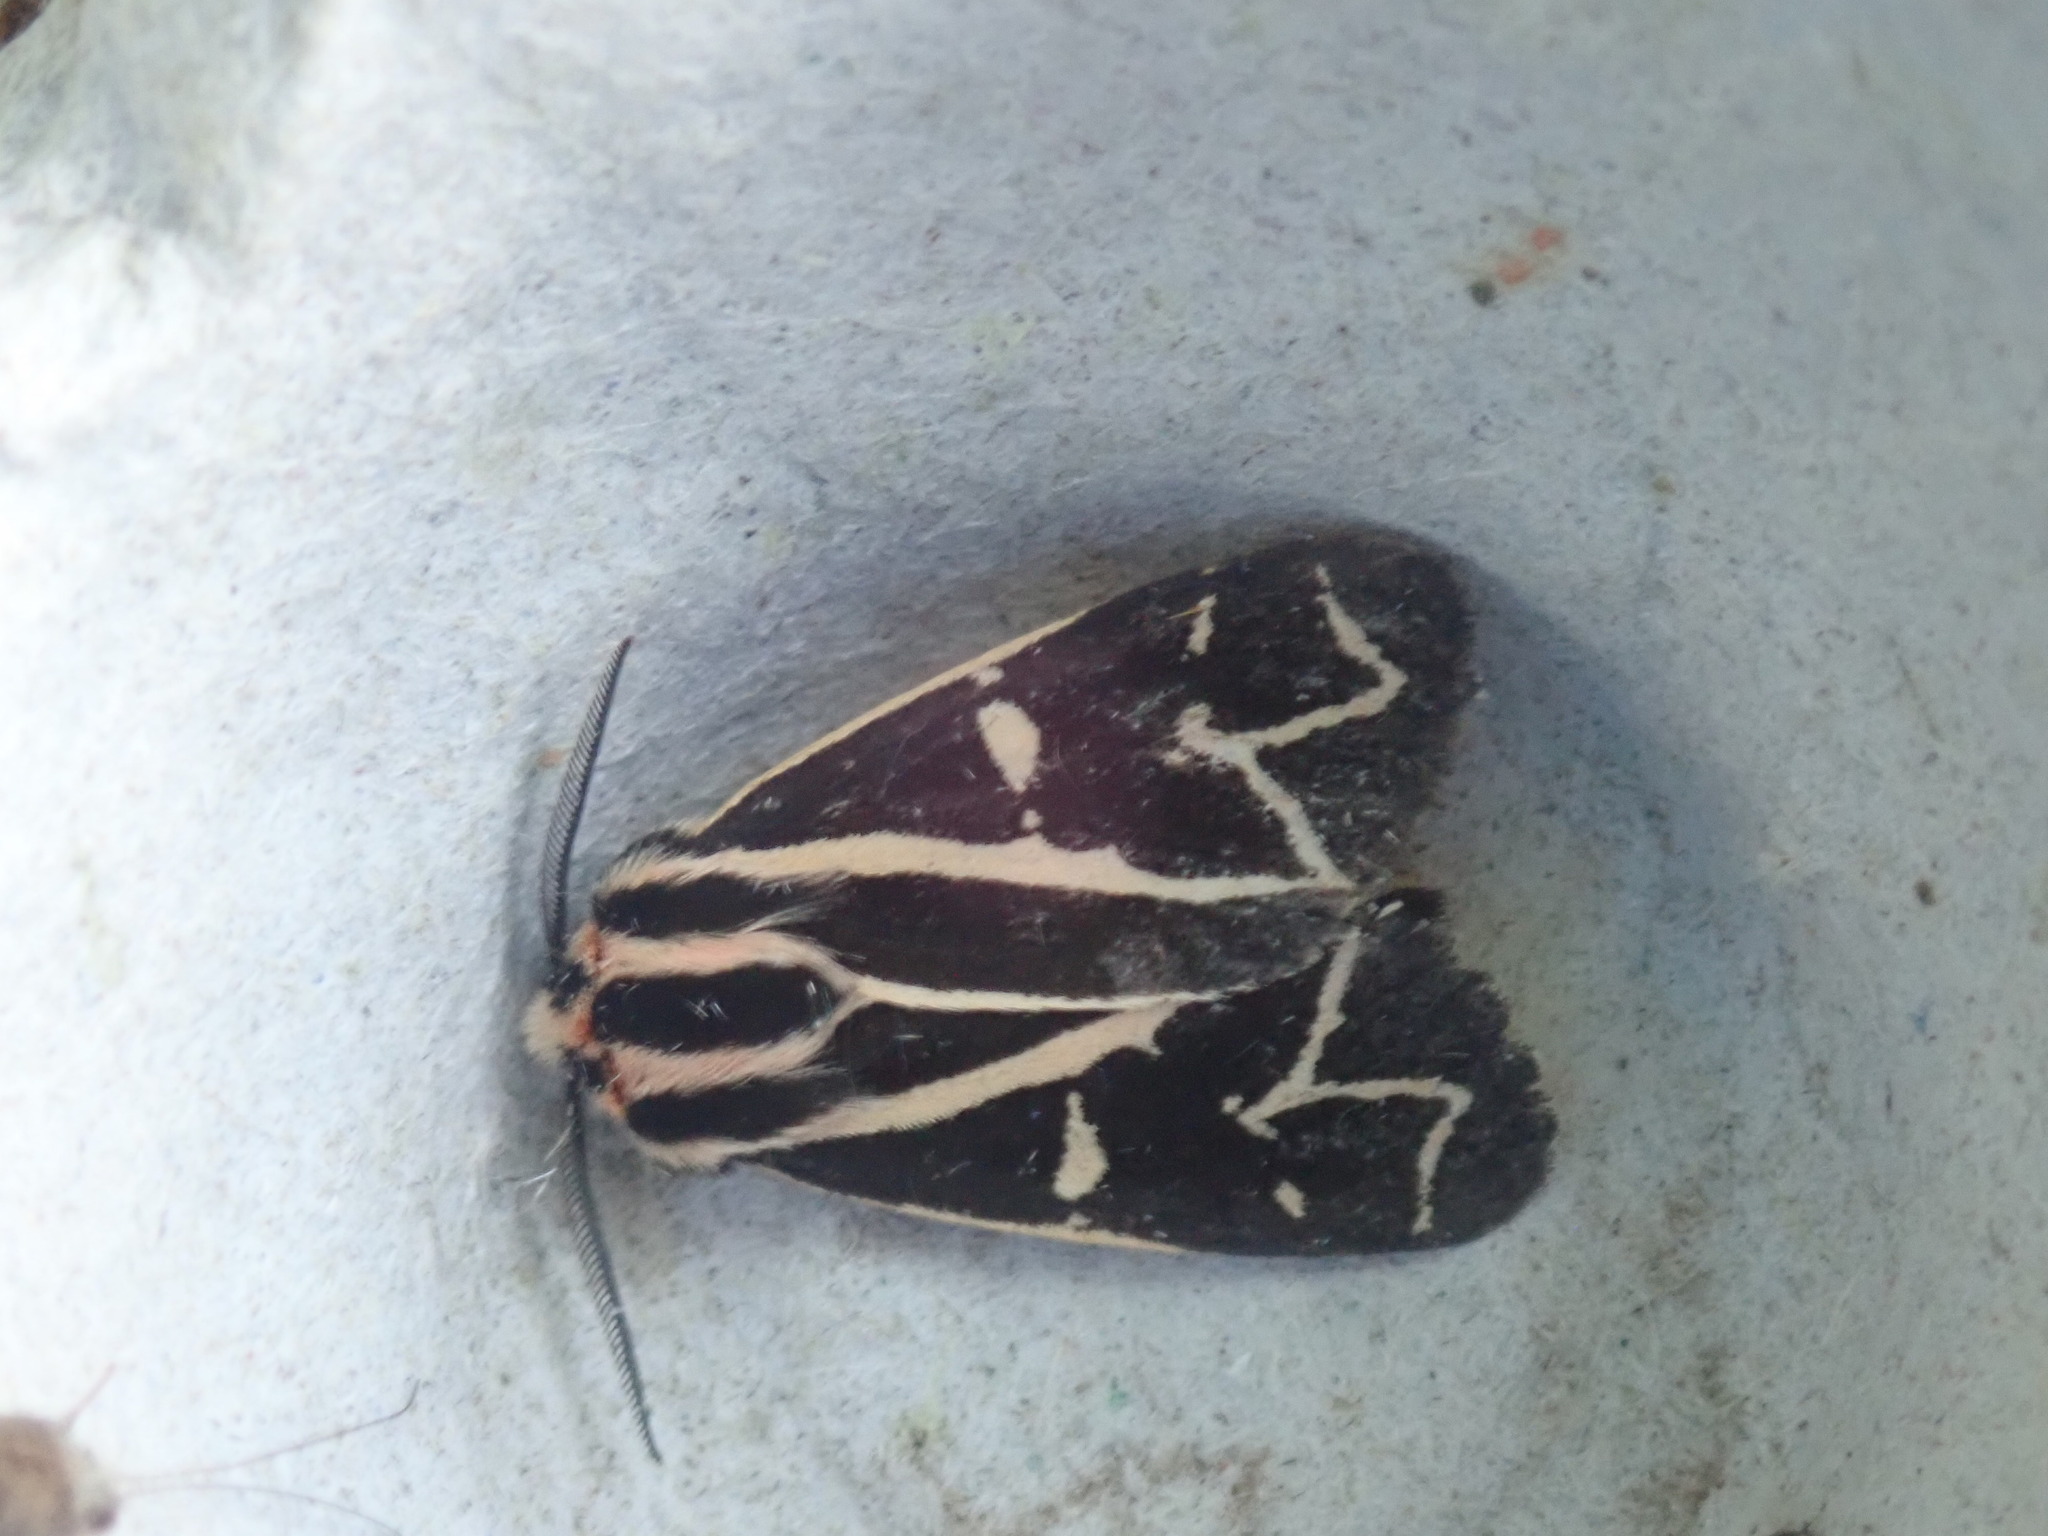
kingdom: Animalia
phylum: Arthropoda
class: Insecta
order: Lepidoptera
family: Erebidae
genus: Apantesis
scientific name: Apantesis
